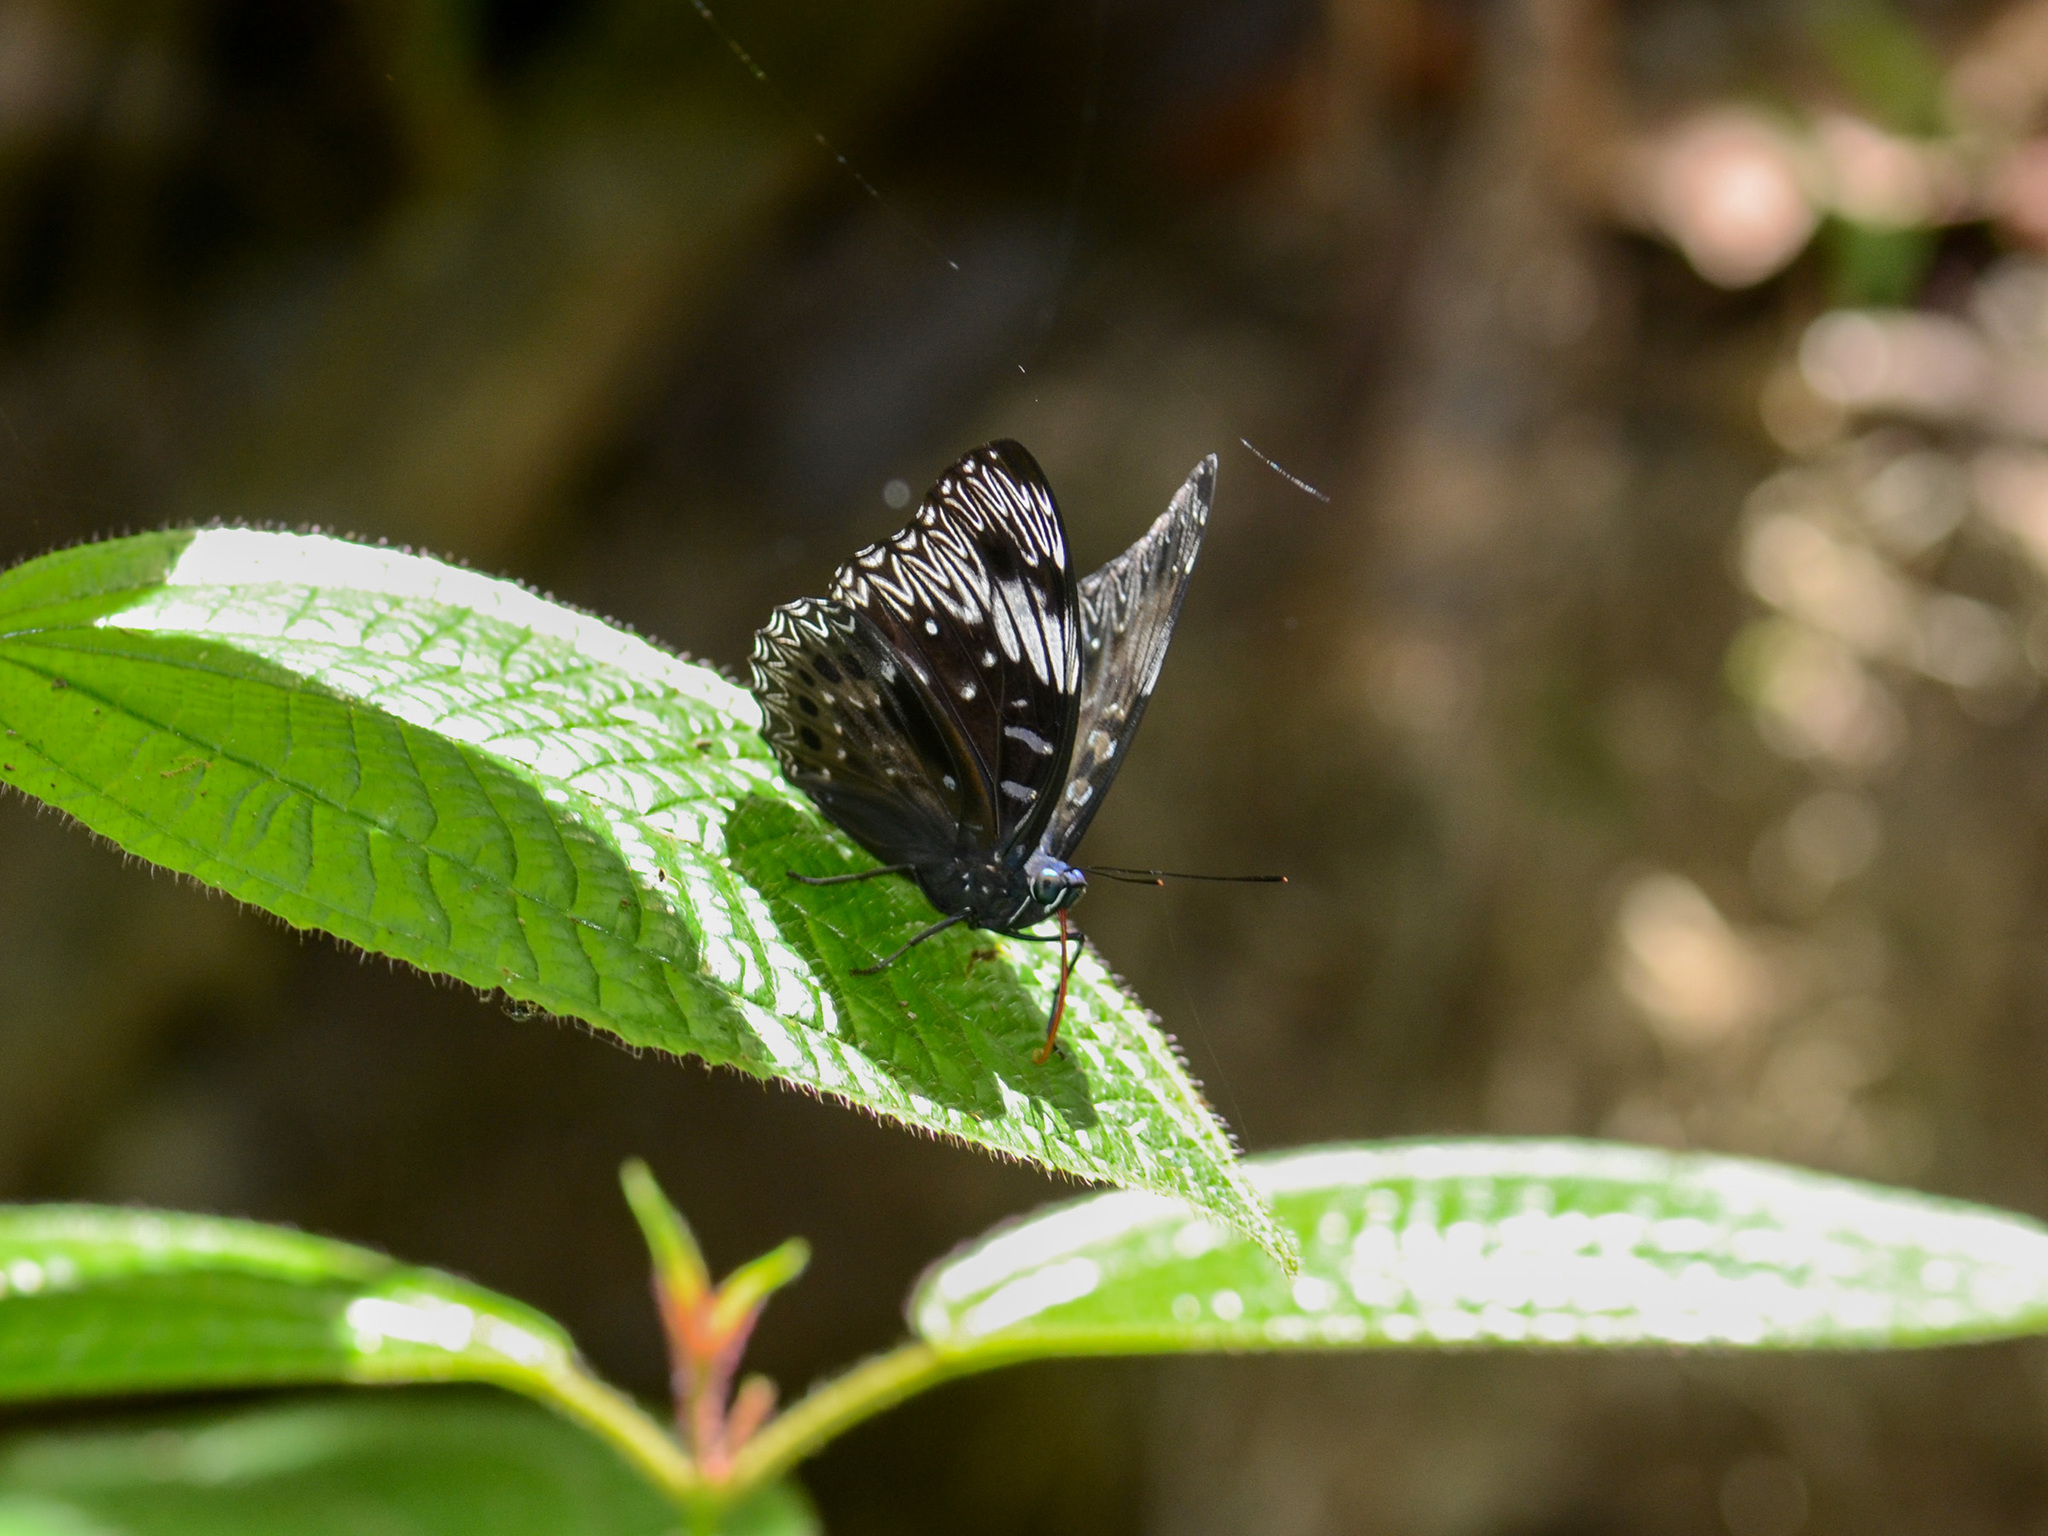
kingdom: Animalia
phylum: Arthropoda
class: Insecta
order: Lepidoptera
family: Nymphalidae
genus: Dichorragia
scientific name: Dichorragia nesimachus
